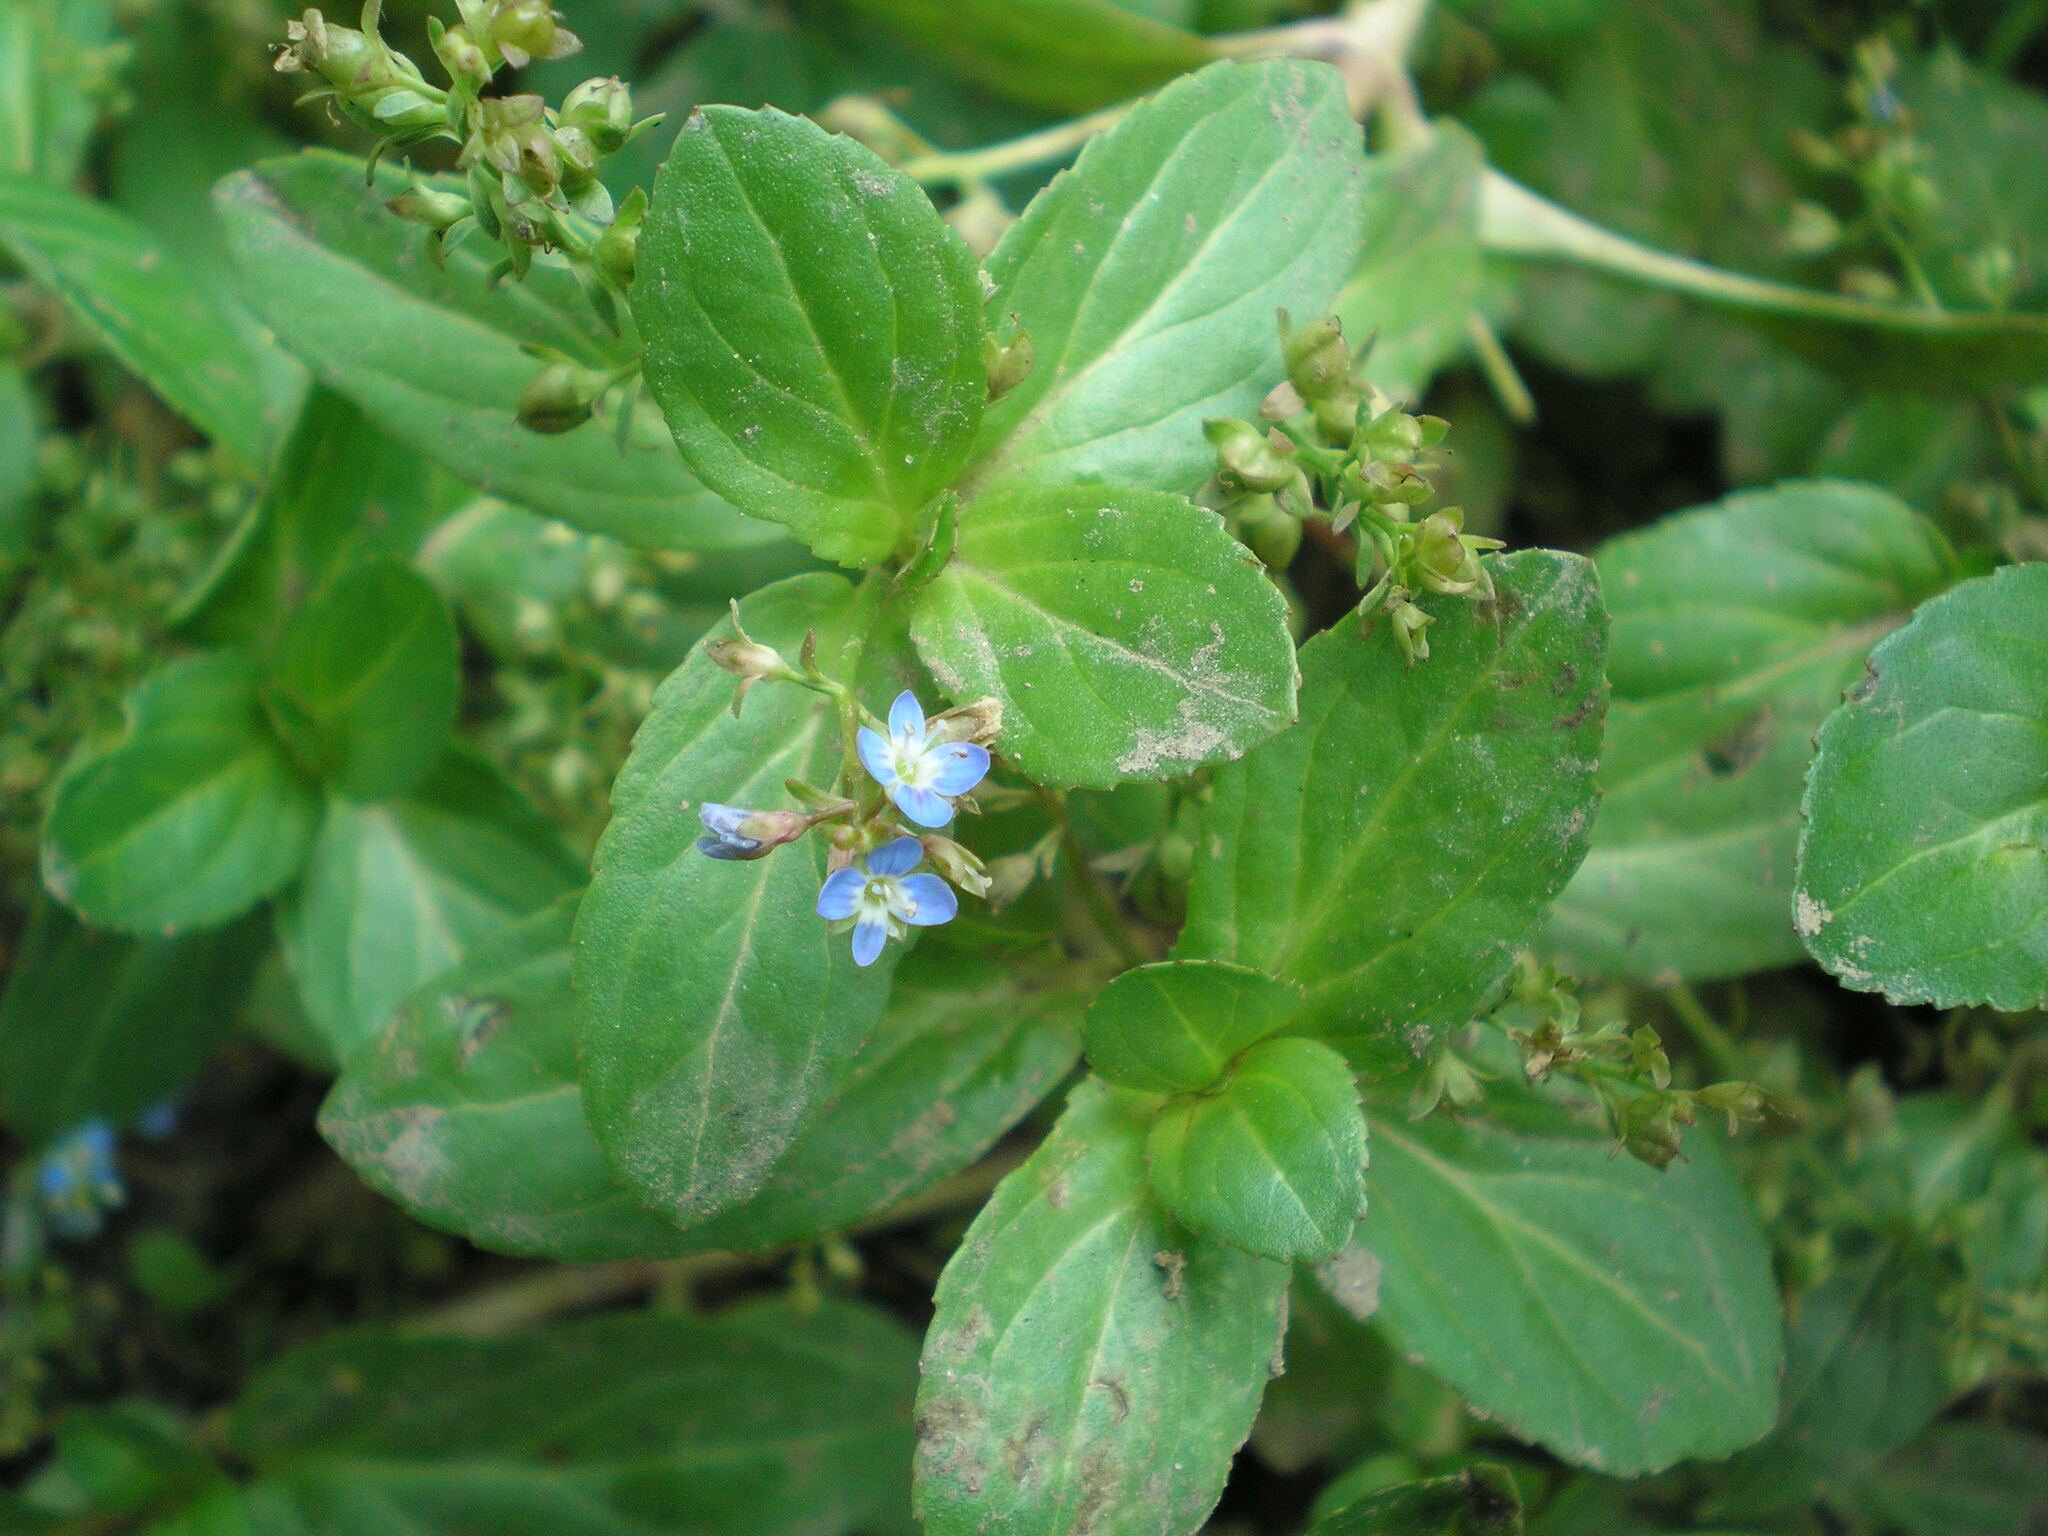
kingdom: Plantae
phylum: Tracheophyta
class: Magnoliopsida
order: Lamiales
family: Plantaginaceae
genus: Veronica
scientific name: Veronica beccabunga
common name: Brooklime
